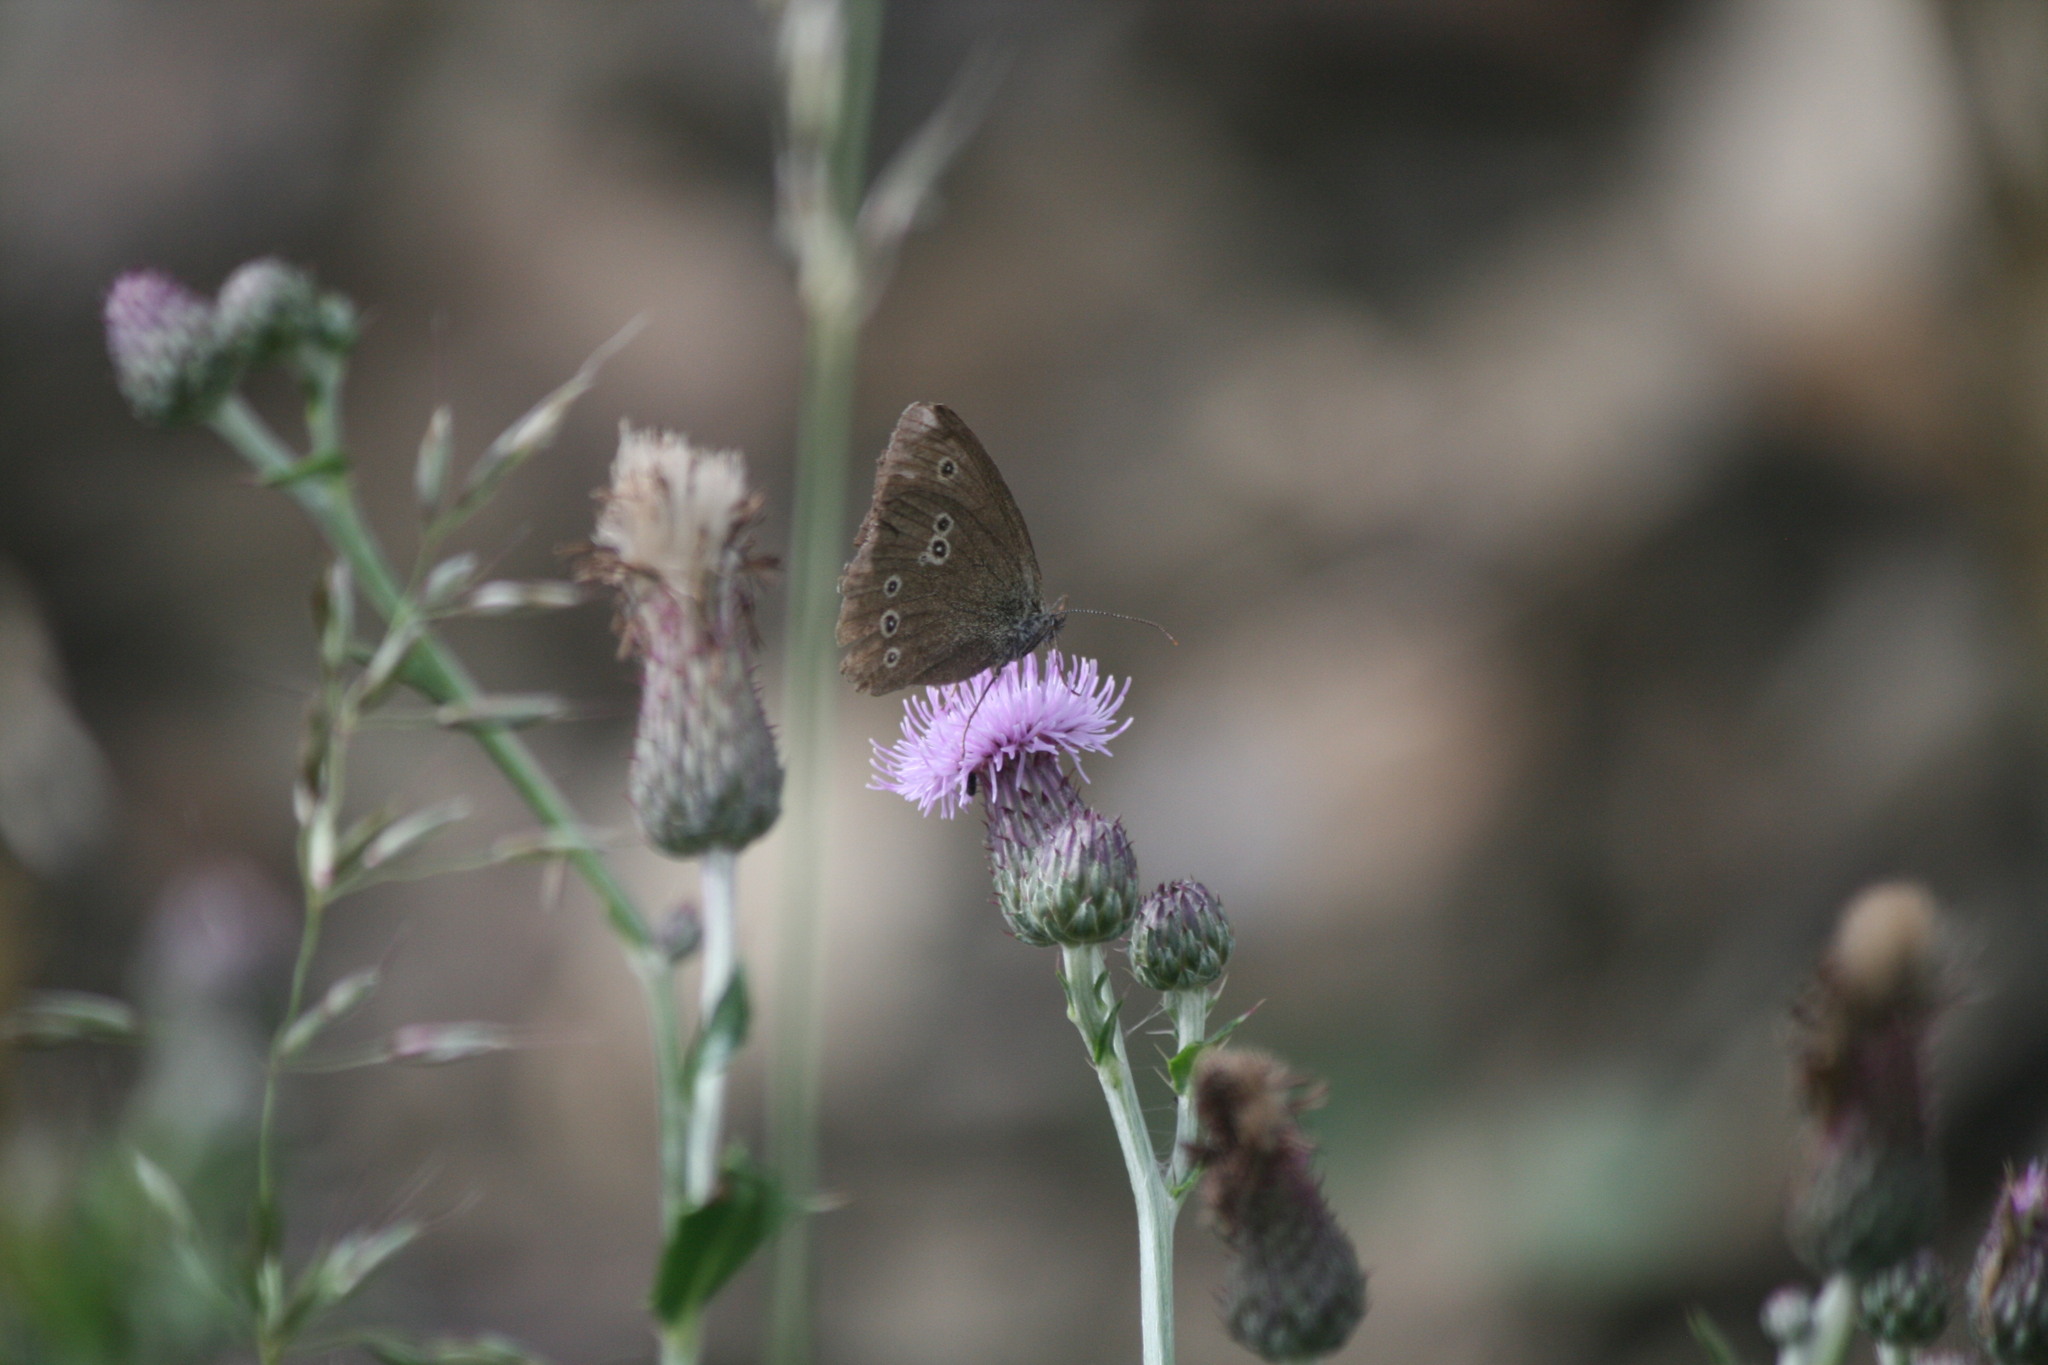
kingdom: Animalia
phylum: Arthropoda
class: Insecta
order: Lepidoptera
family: Nymphalidae
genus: Aphantopus
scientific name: Aphantopus hyperantus
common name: Ringlet
